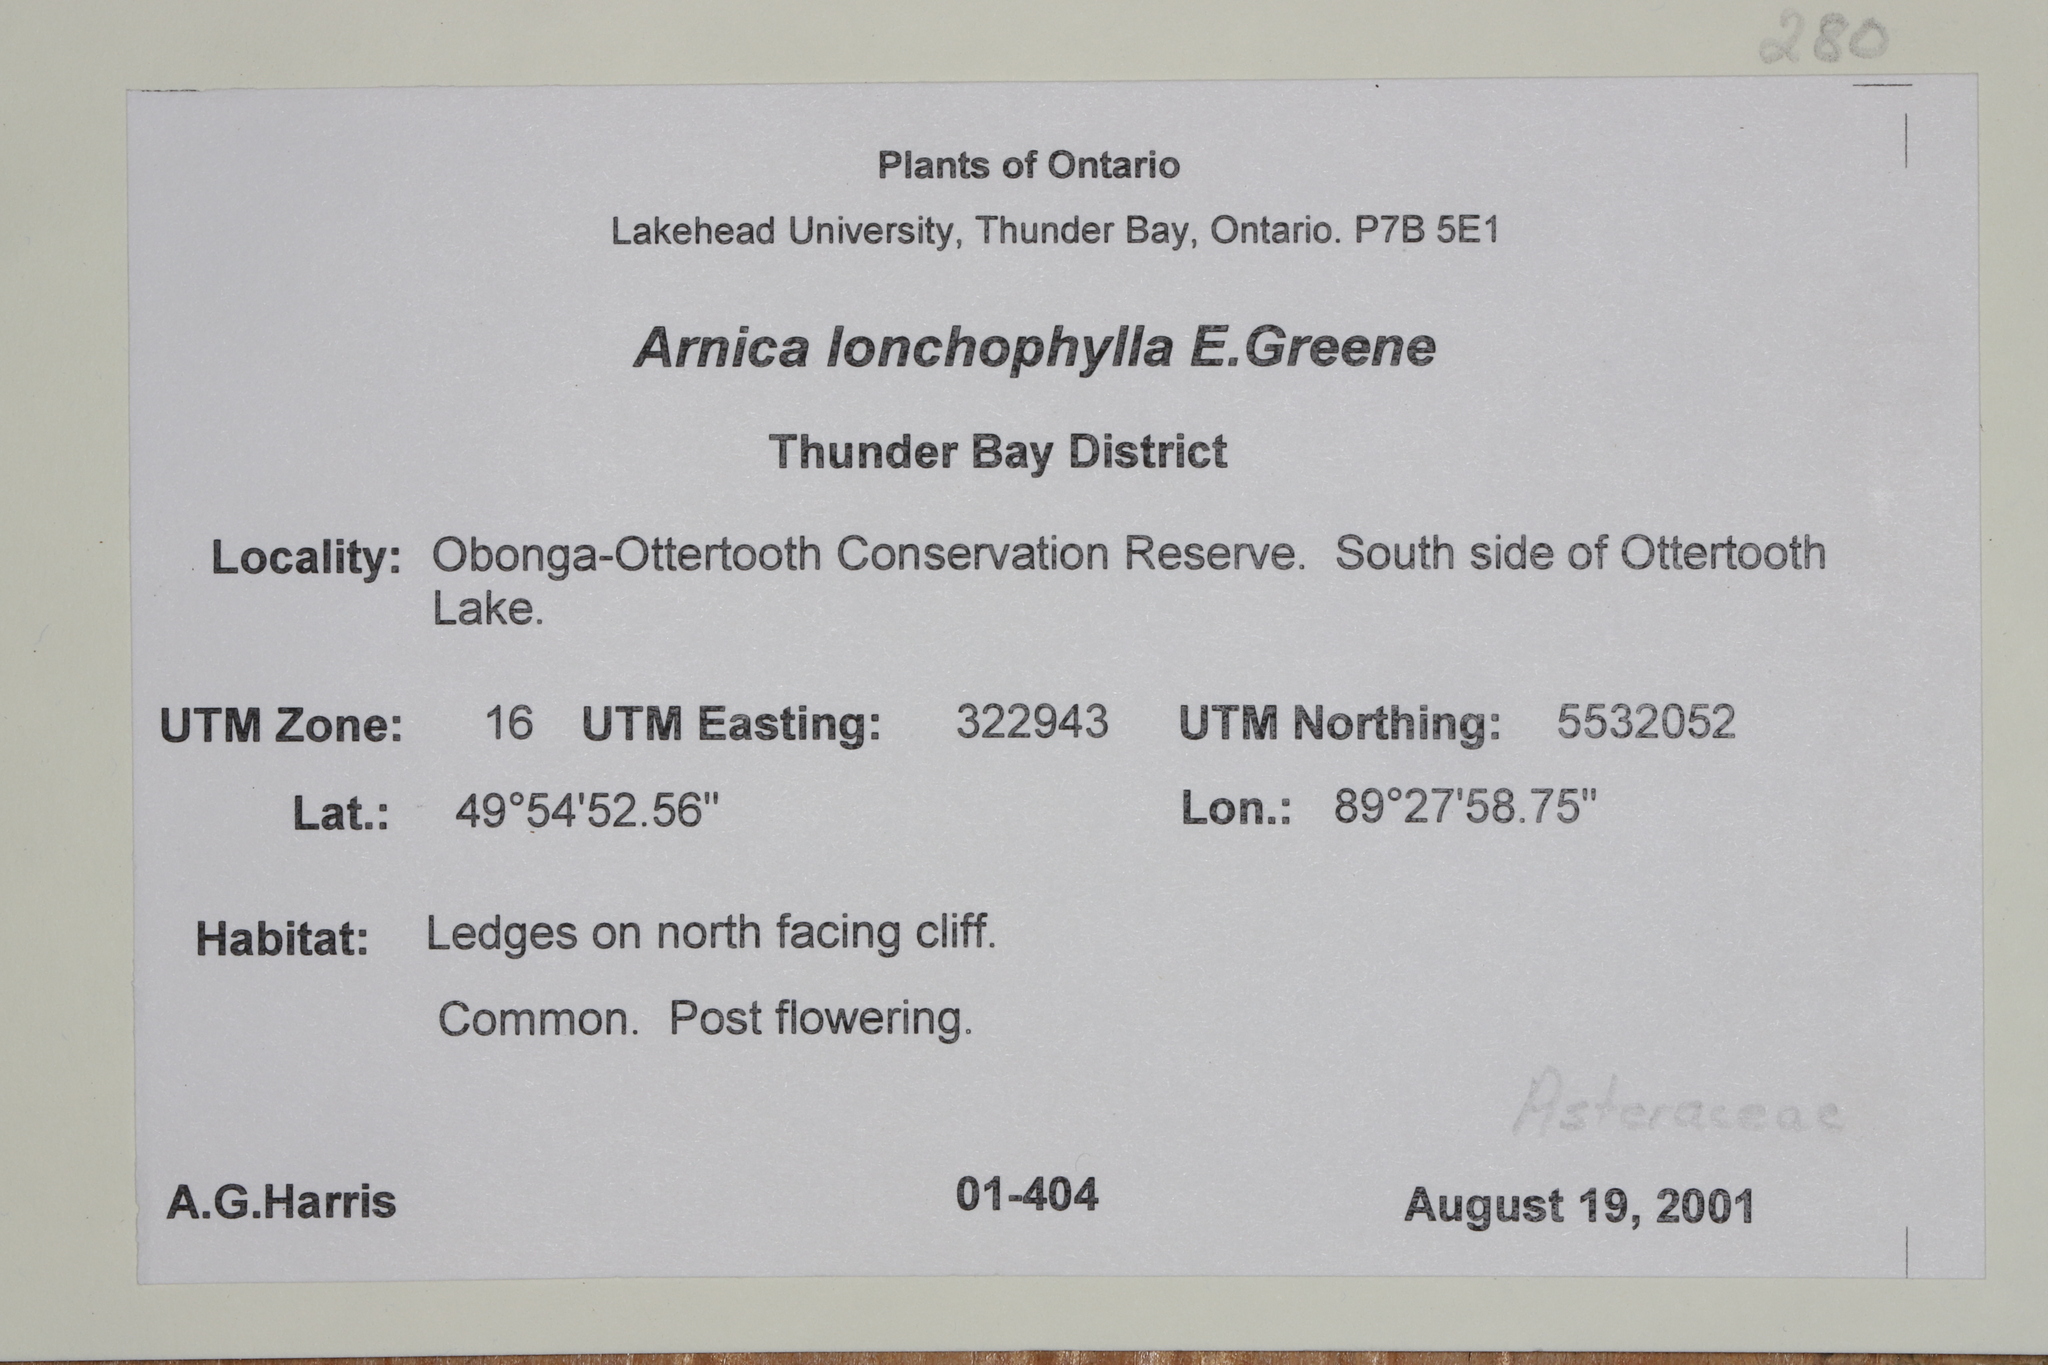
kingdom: Plantae
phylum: Tracheophyta
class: Magnoliopsida
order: Asterales
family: Asteraceae
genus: Arnica
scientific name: Arnica lonchophylla
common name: Northern arnica
